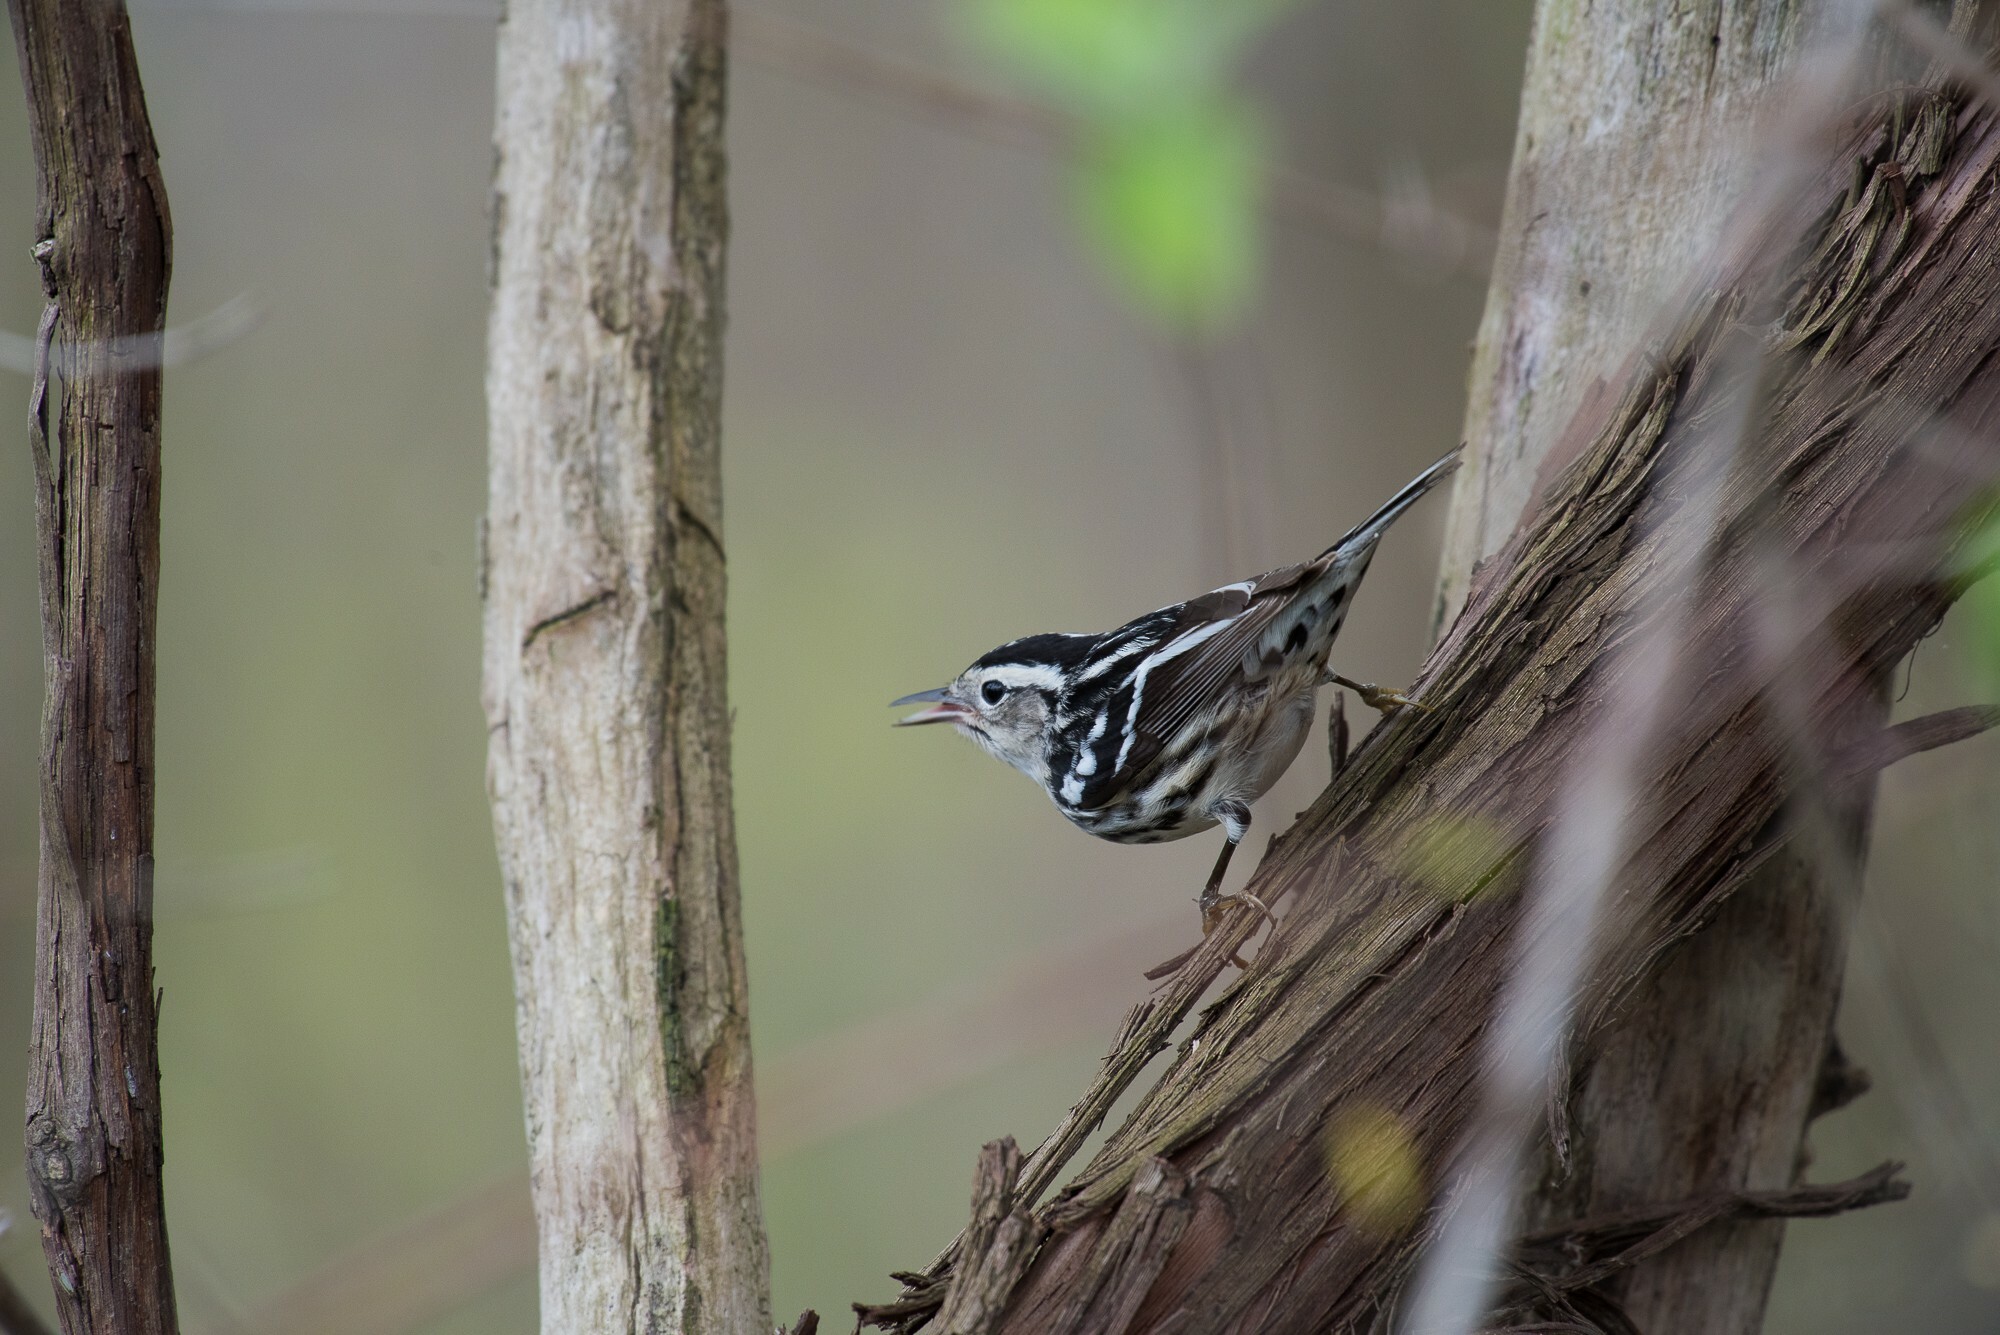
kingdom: Animalia
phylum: Chordata
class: Aves
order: Passeriformes
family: Parulidae
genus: Mniotilta
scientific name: Mniotilta varia
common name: Black-and-white warbler
